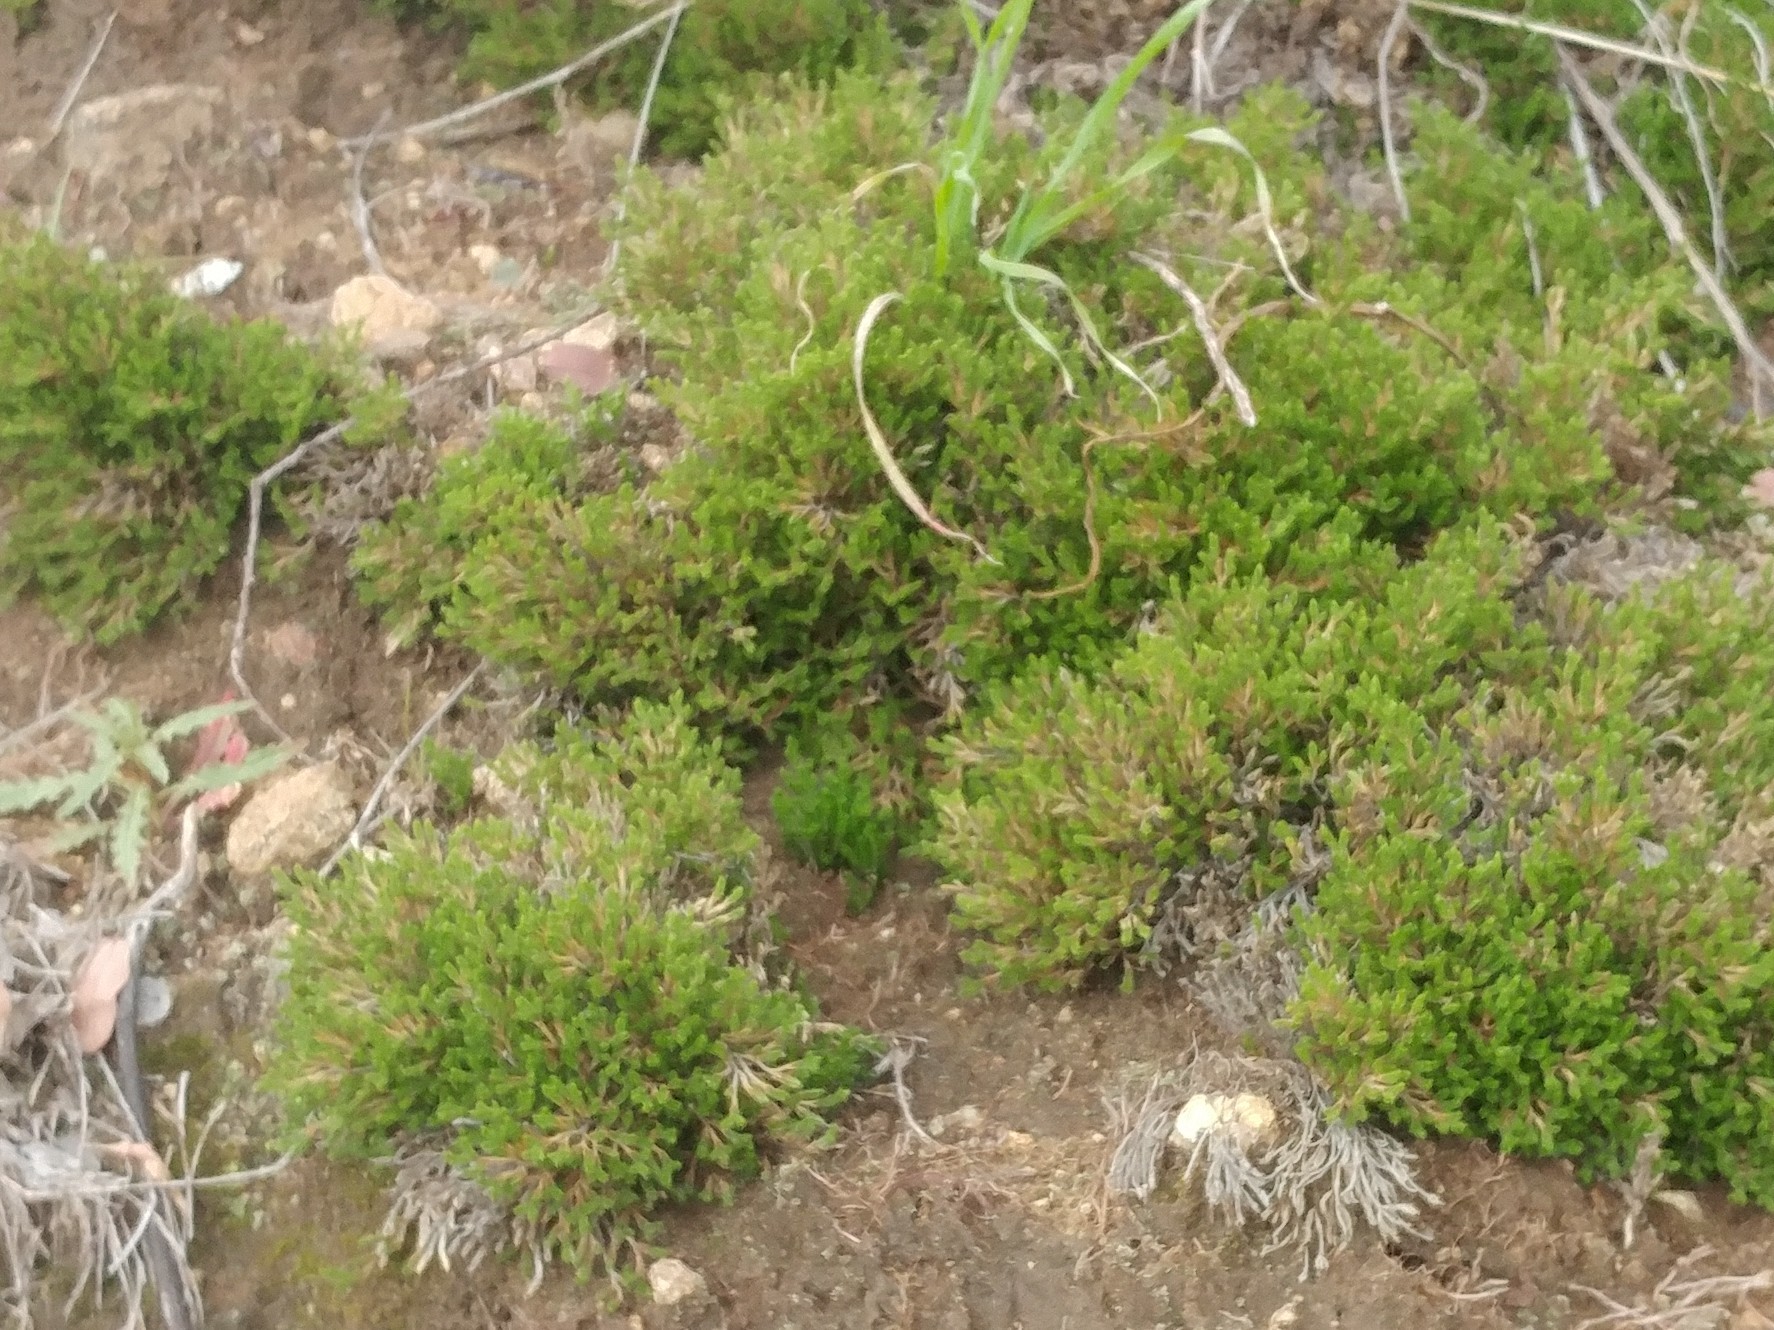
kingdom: Plantae
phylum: Tracheophyta
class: Lycopodiopsida
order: Selaginellales
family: Selaginellaceae
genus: Selaginella
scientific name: Selaginella bigelovii
